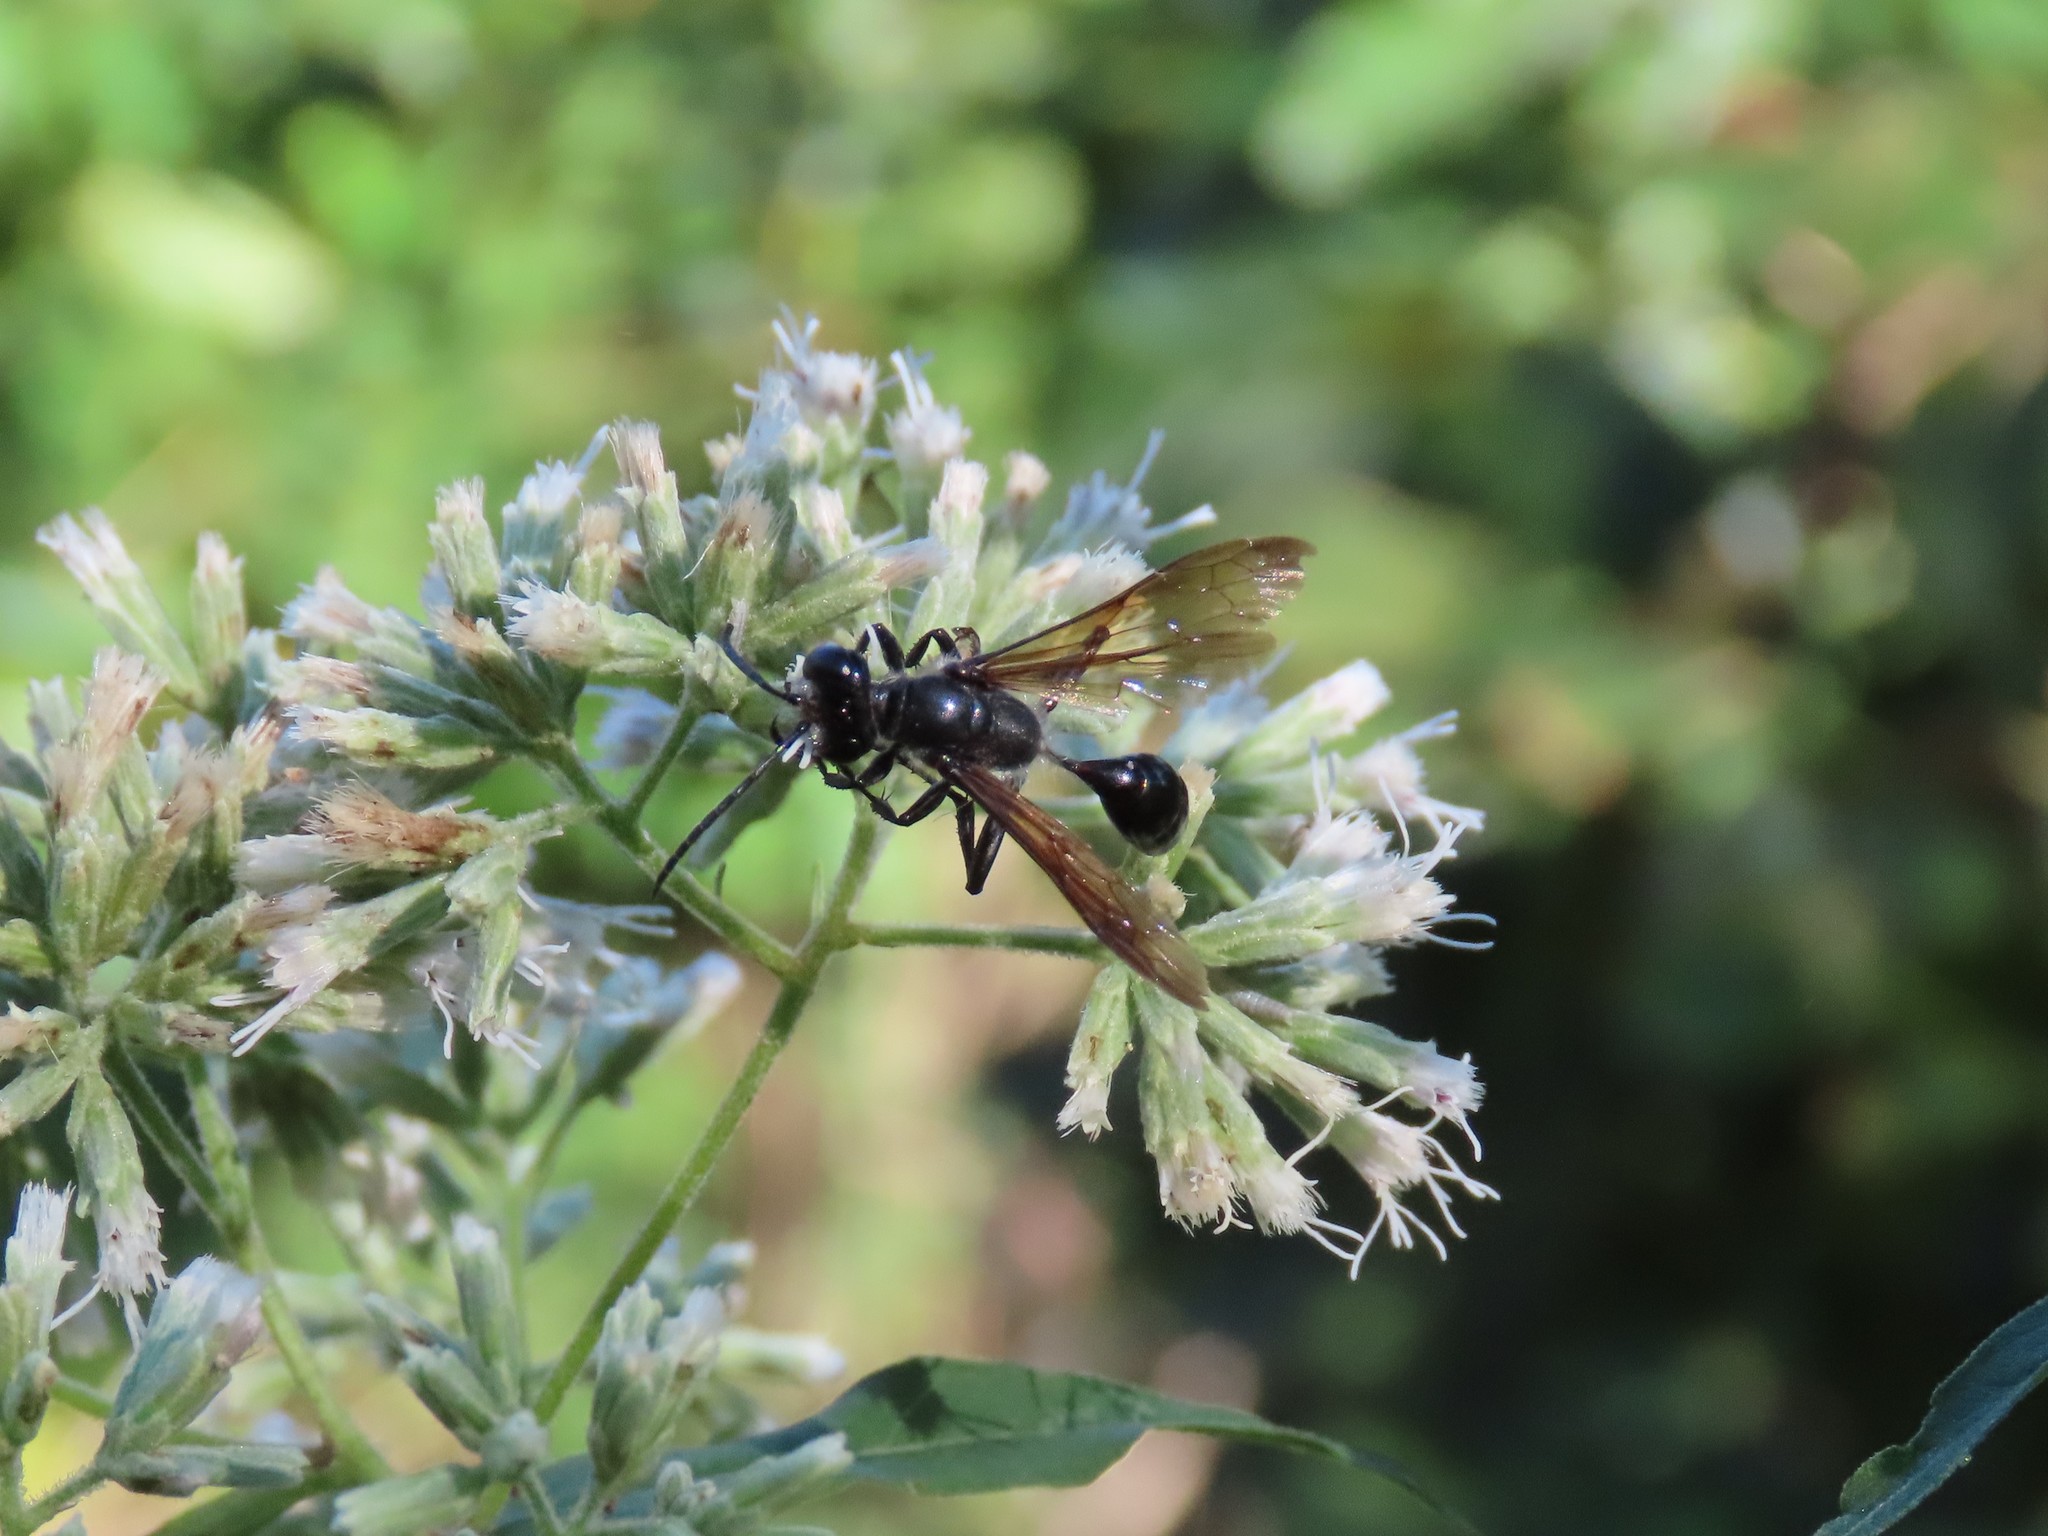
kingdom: Animalia
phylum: Arthropoda
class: Insecta
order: Hymenoptera
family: Sphecidae
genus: Isodontia
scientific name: Isodontia mexicana
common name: Mud dauber
